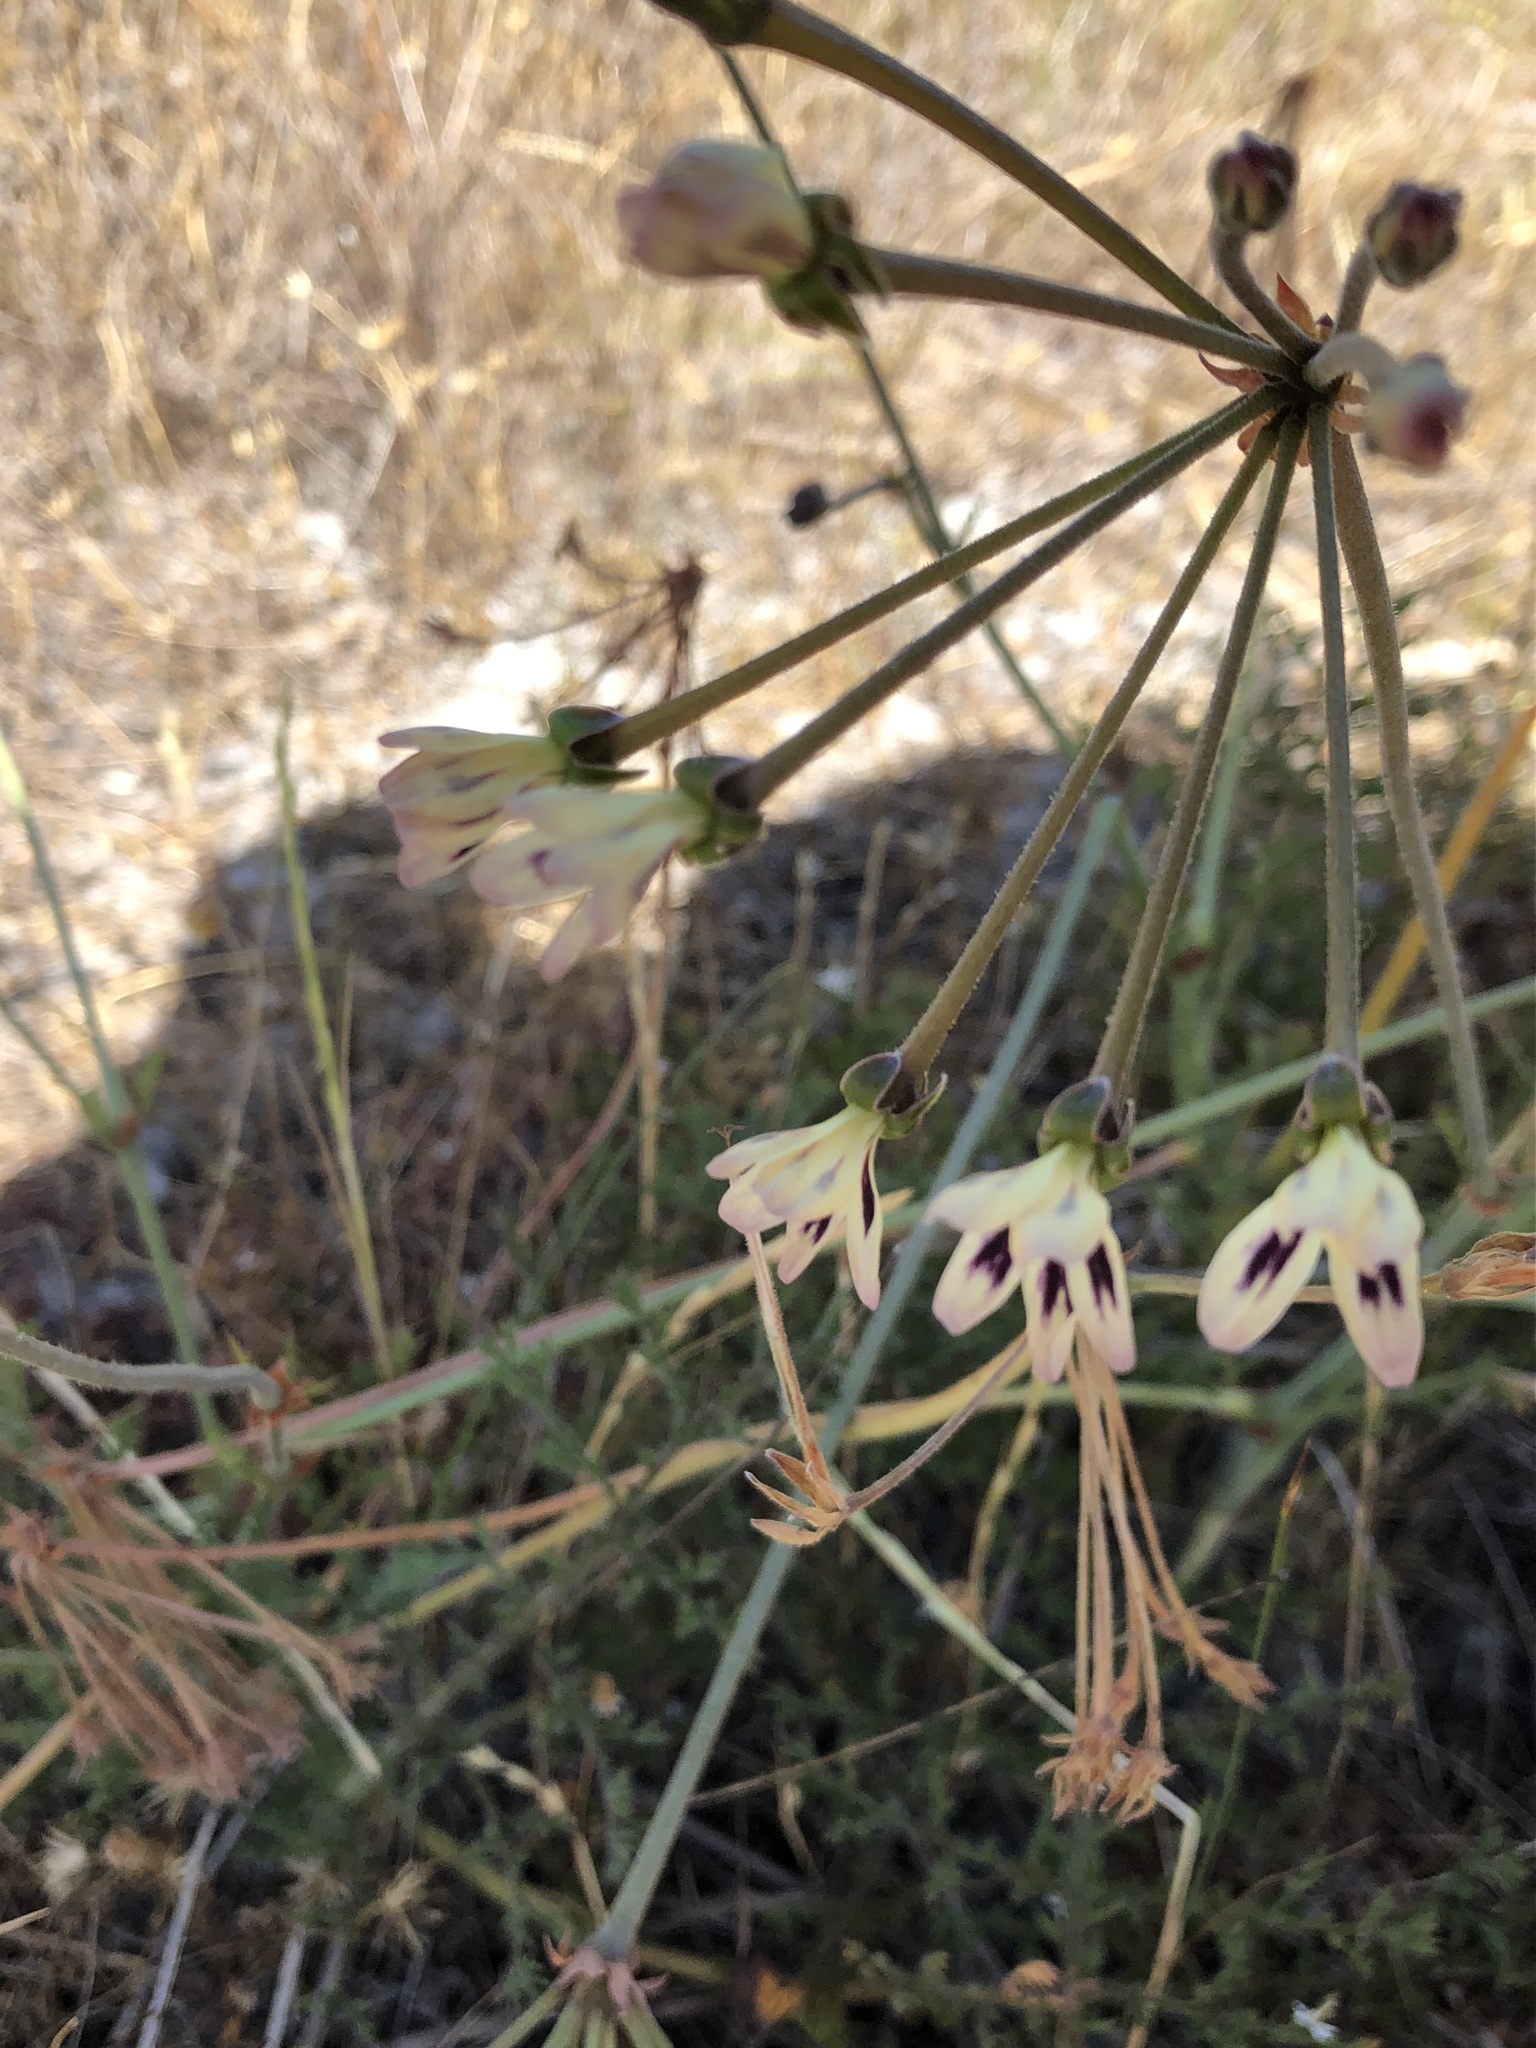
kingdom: Plantae
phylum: Tracheophyta
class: Magnoliopsida
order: Geraniales
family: Geraniaceae
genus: Pelargonium
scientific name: Pelargonium triste
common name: Night-scent pelargonium
